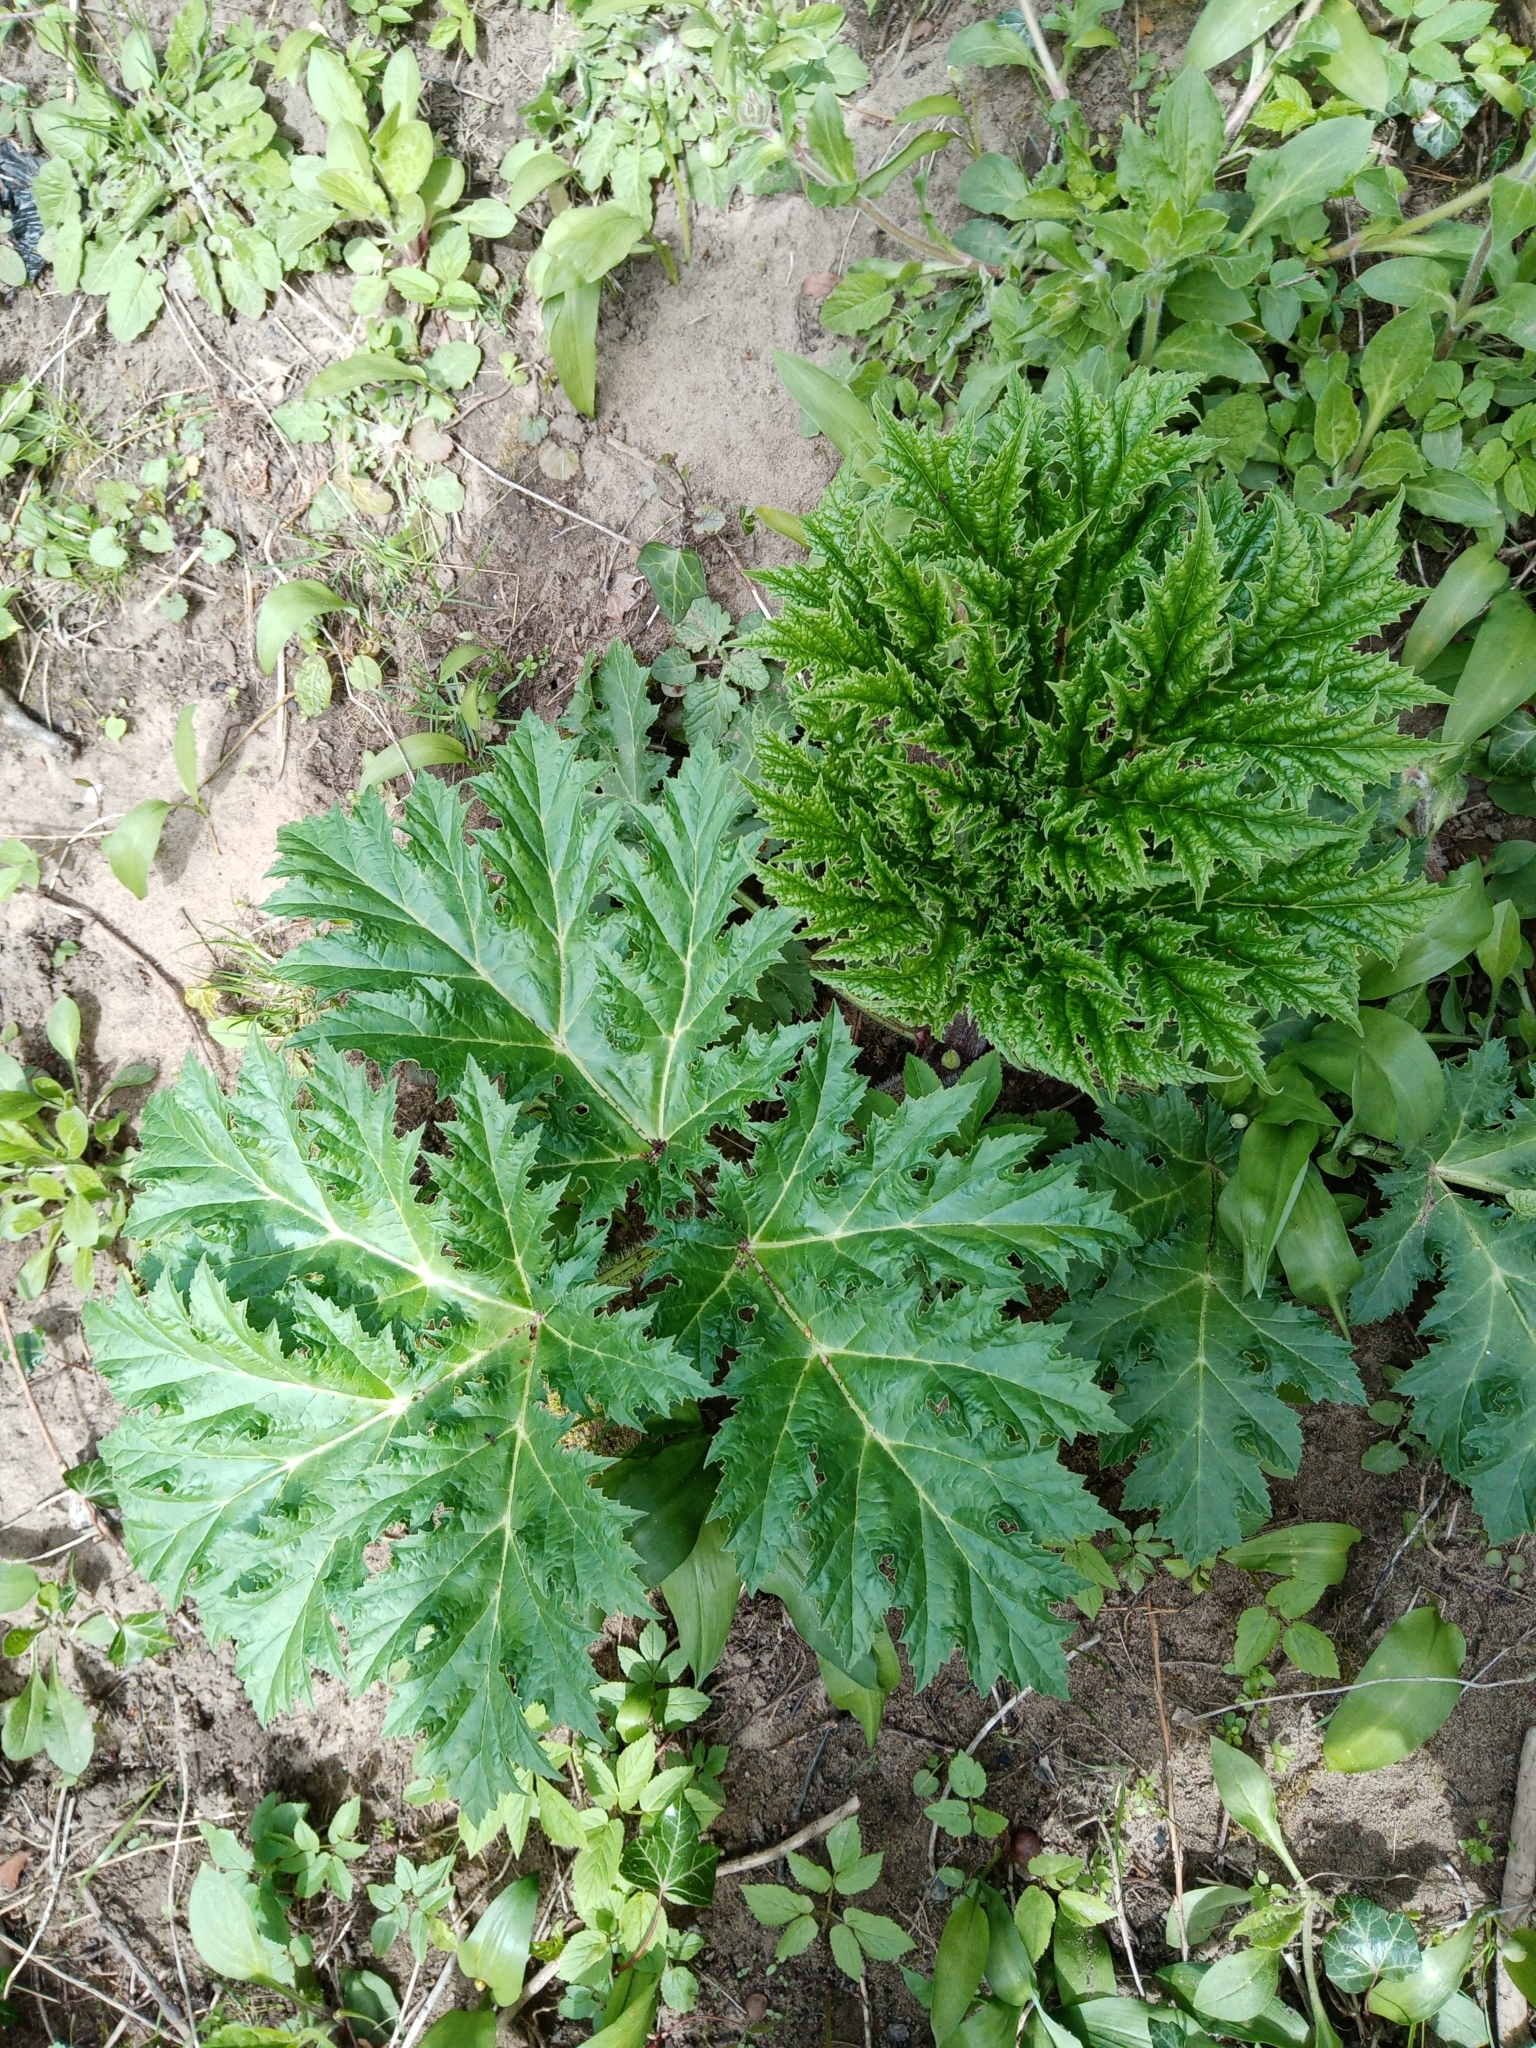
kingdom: Plantae
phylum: Tracheophyta
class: Magnoliopsida
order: Apiales
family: Apiaceae
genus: Heracleum
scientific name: Heracleum mantegazzianum
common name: Giant hogweed
